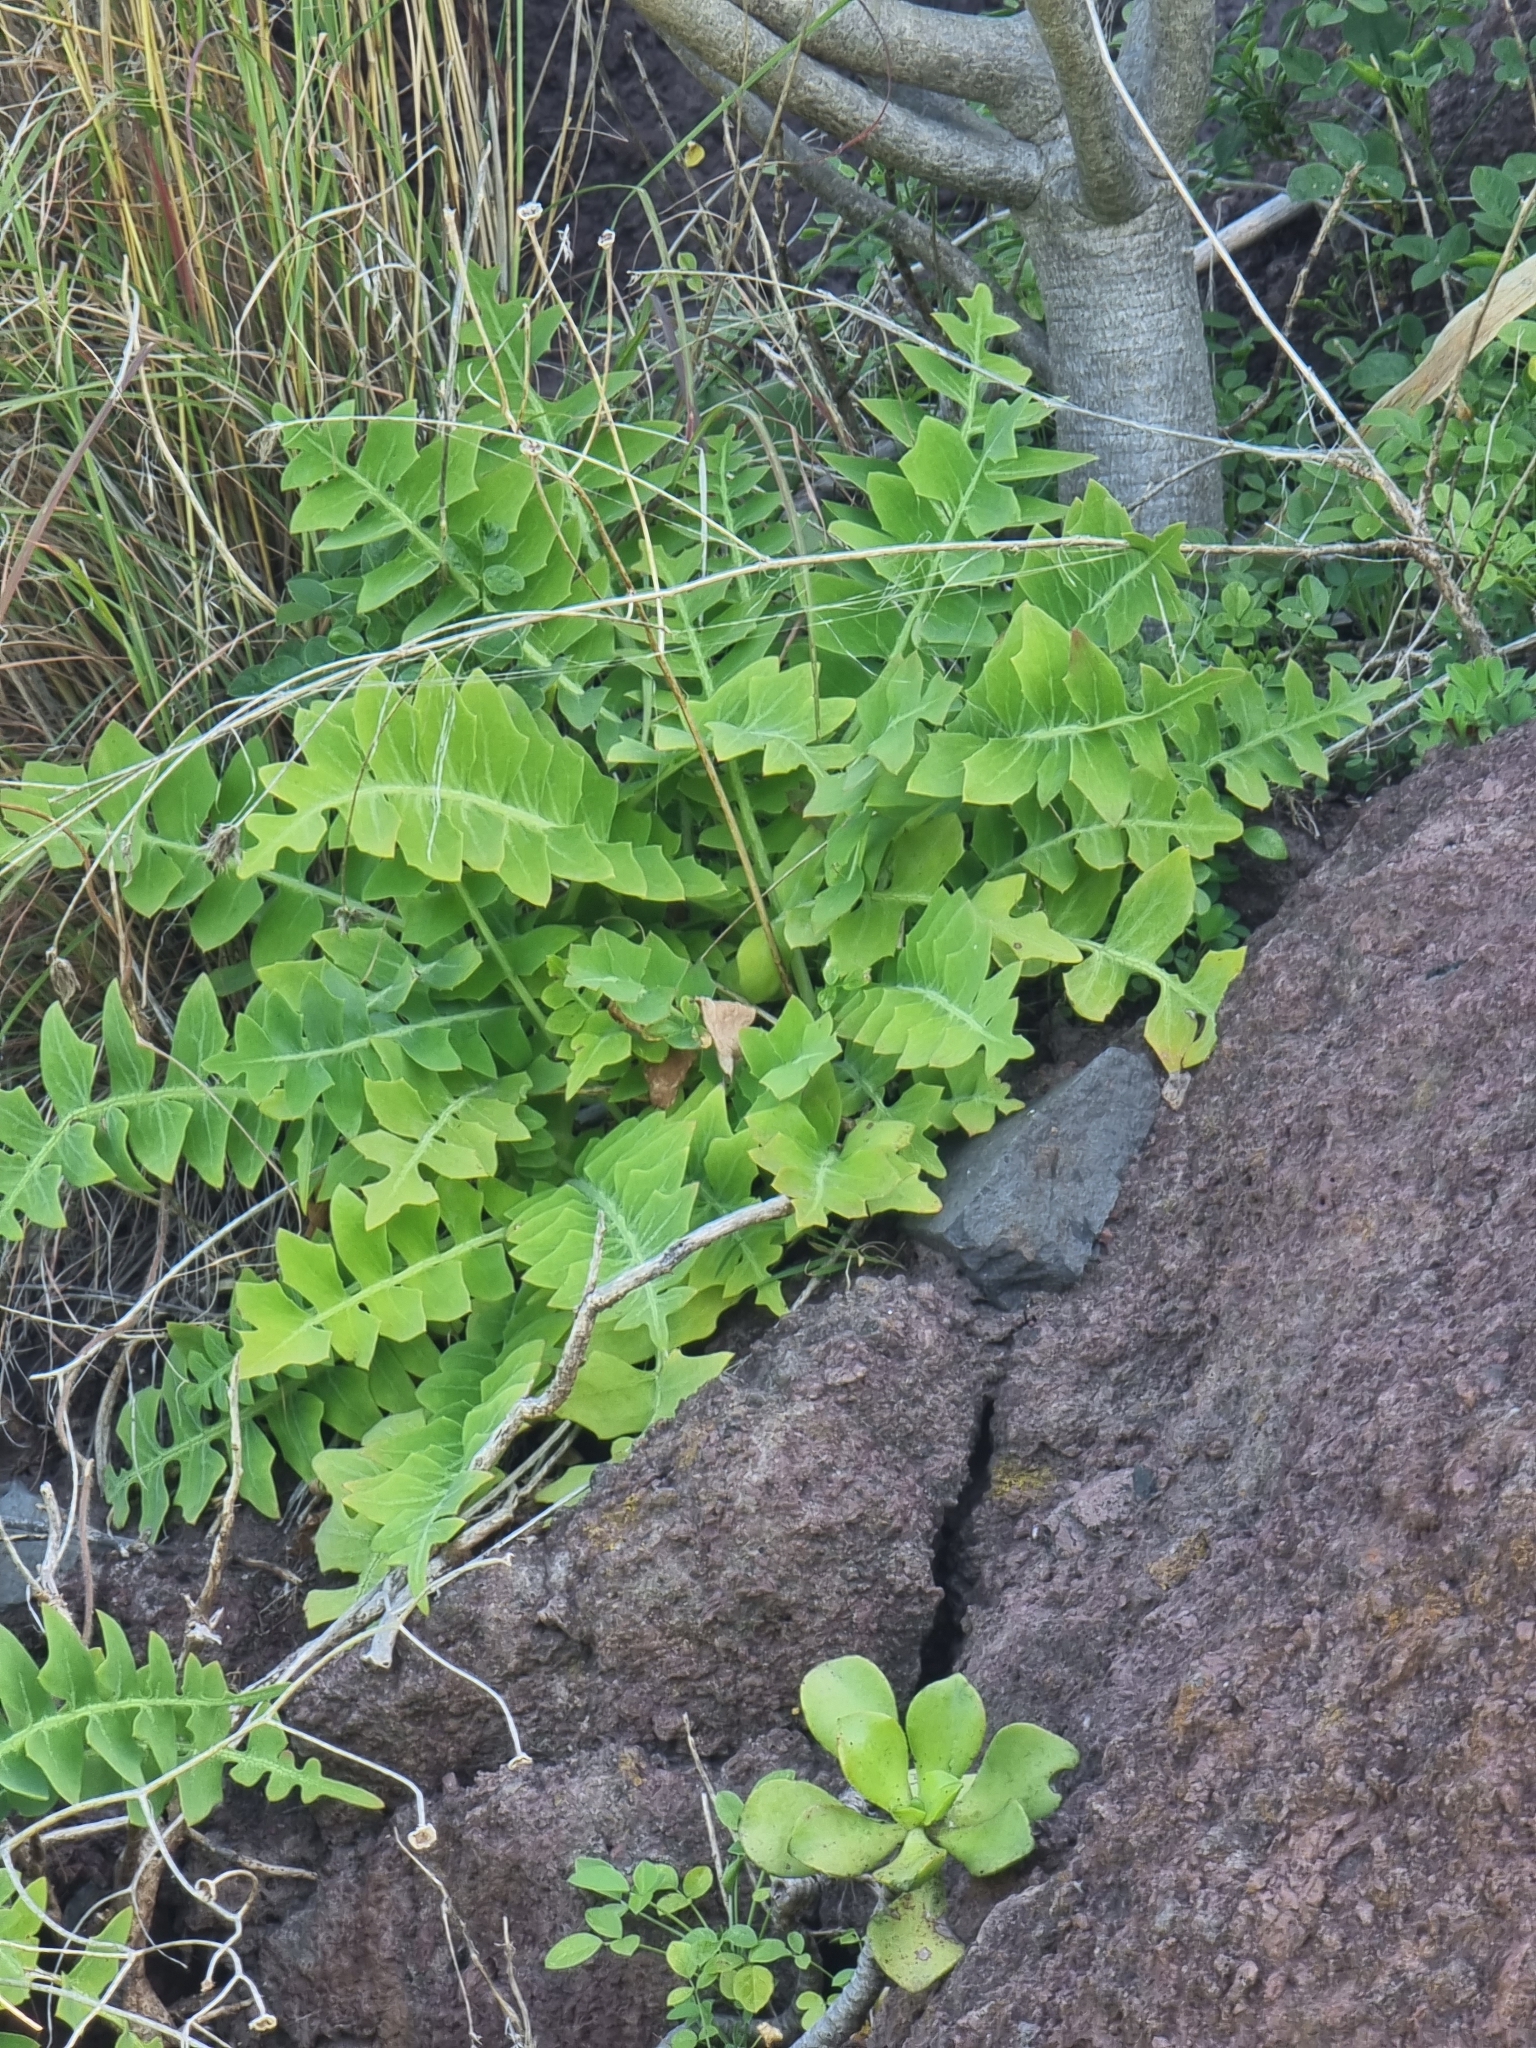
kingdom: Plantae
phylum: Tracheophyta
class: Magnoliopsida
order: Asterales
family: Asteraceae
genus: Sonchus
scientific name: Sonchus latifolius
